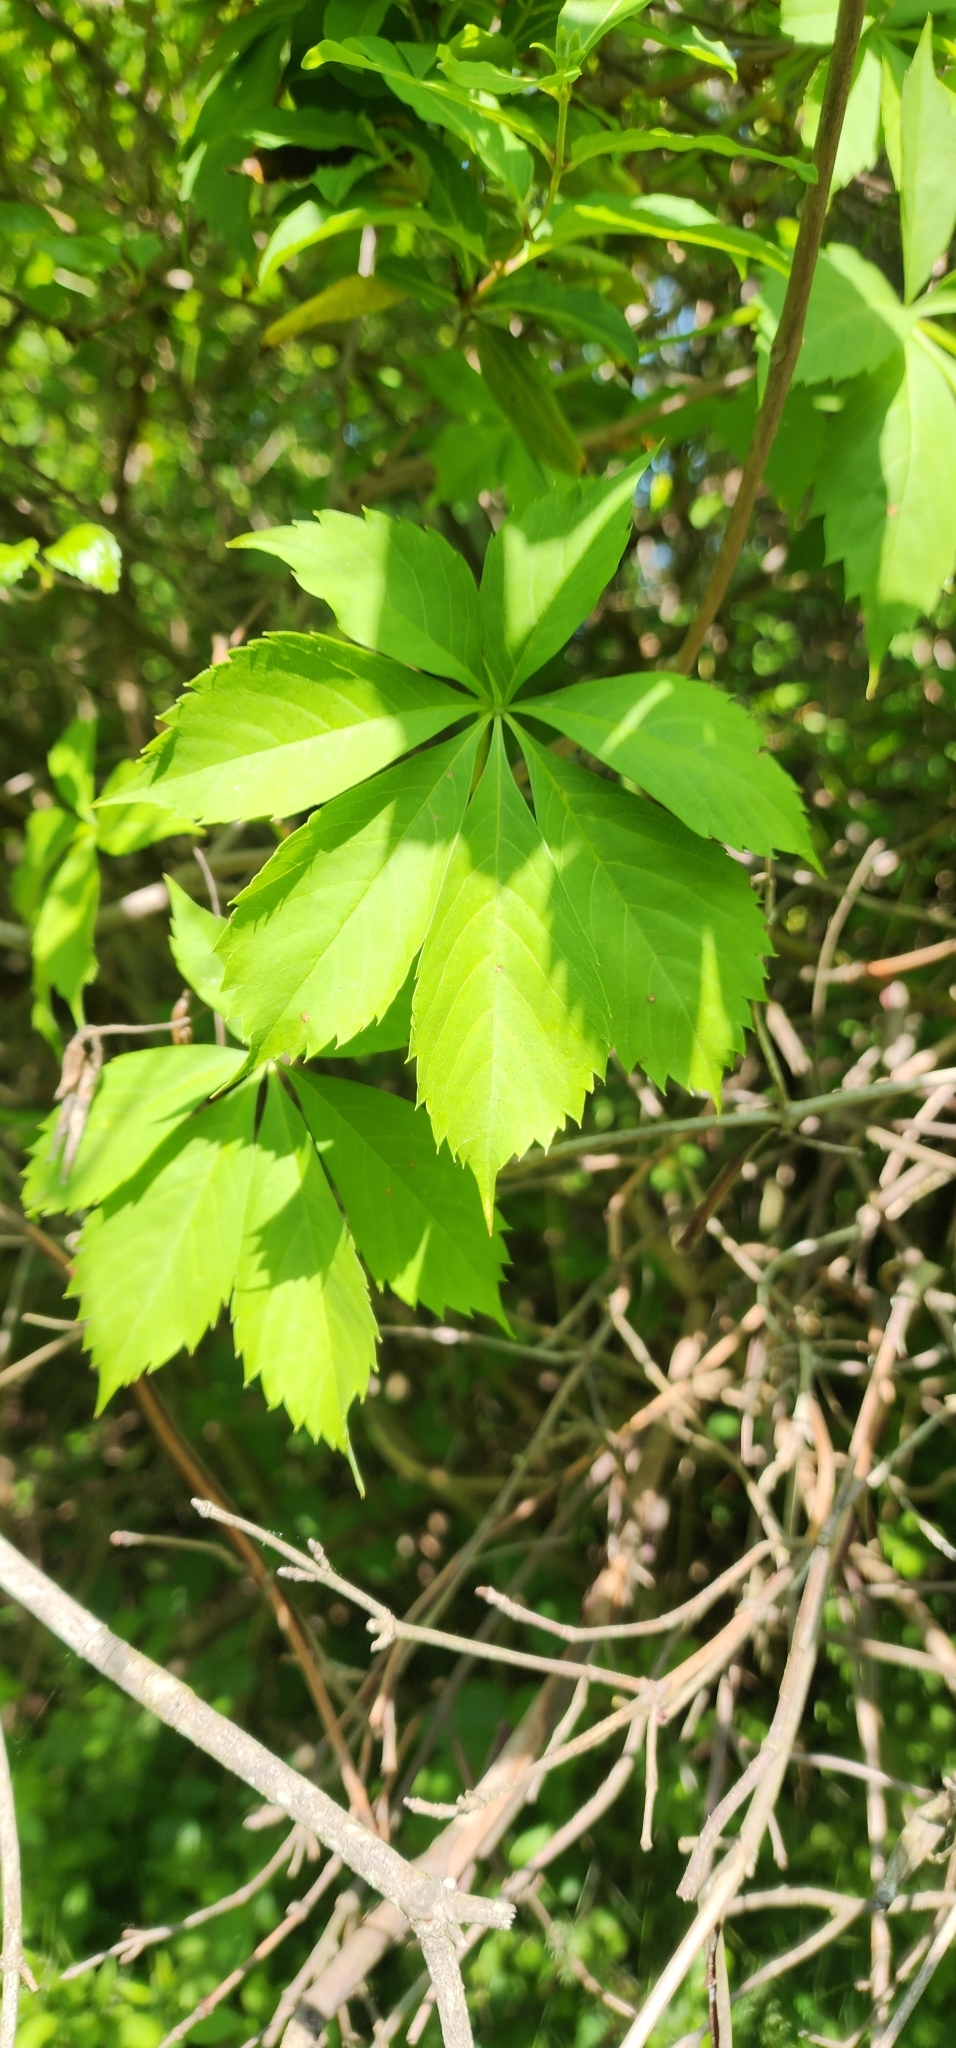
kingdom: Plantae
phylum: Tracheophyta
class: Magnoliopsida
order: Vitales
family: Vitaceae
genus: Parthenocissus
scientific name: Parthenocissus quinquefolia
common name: Virginia-creeper
